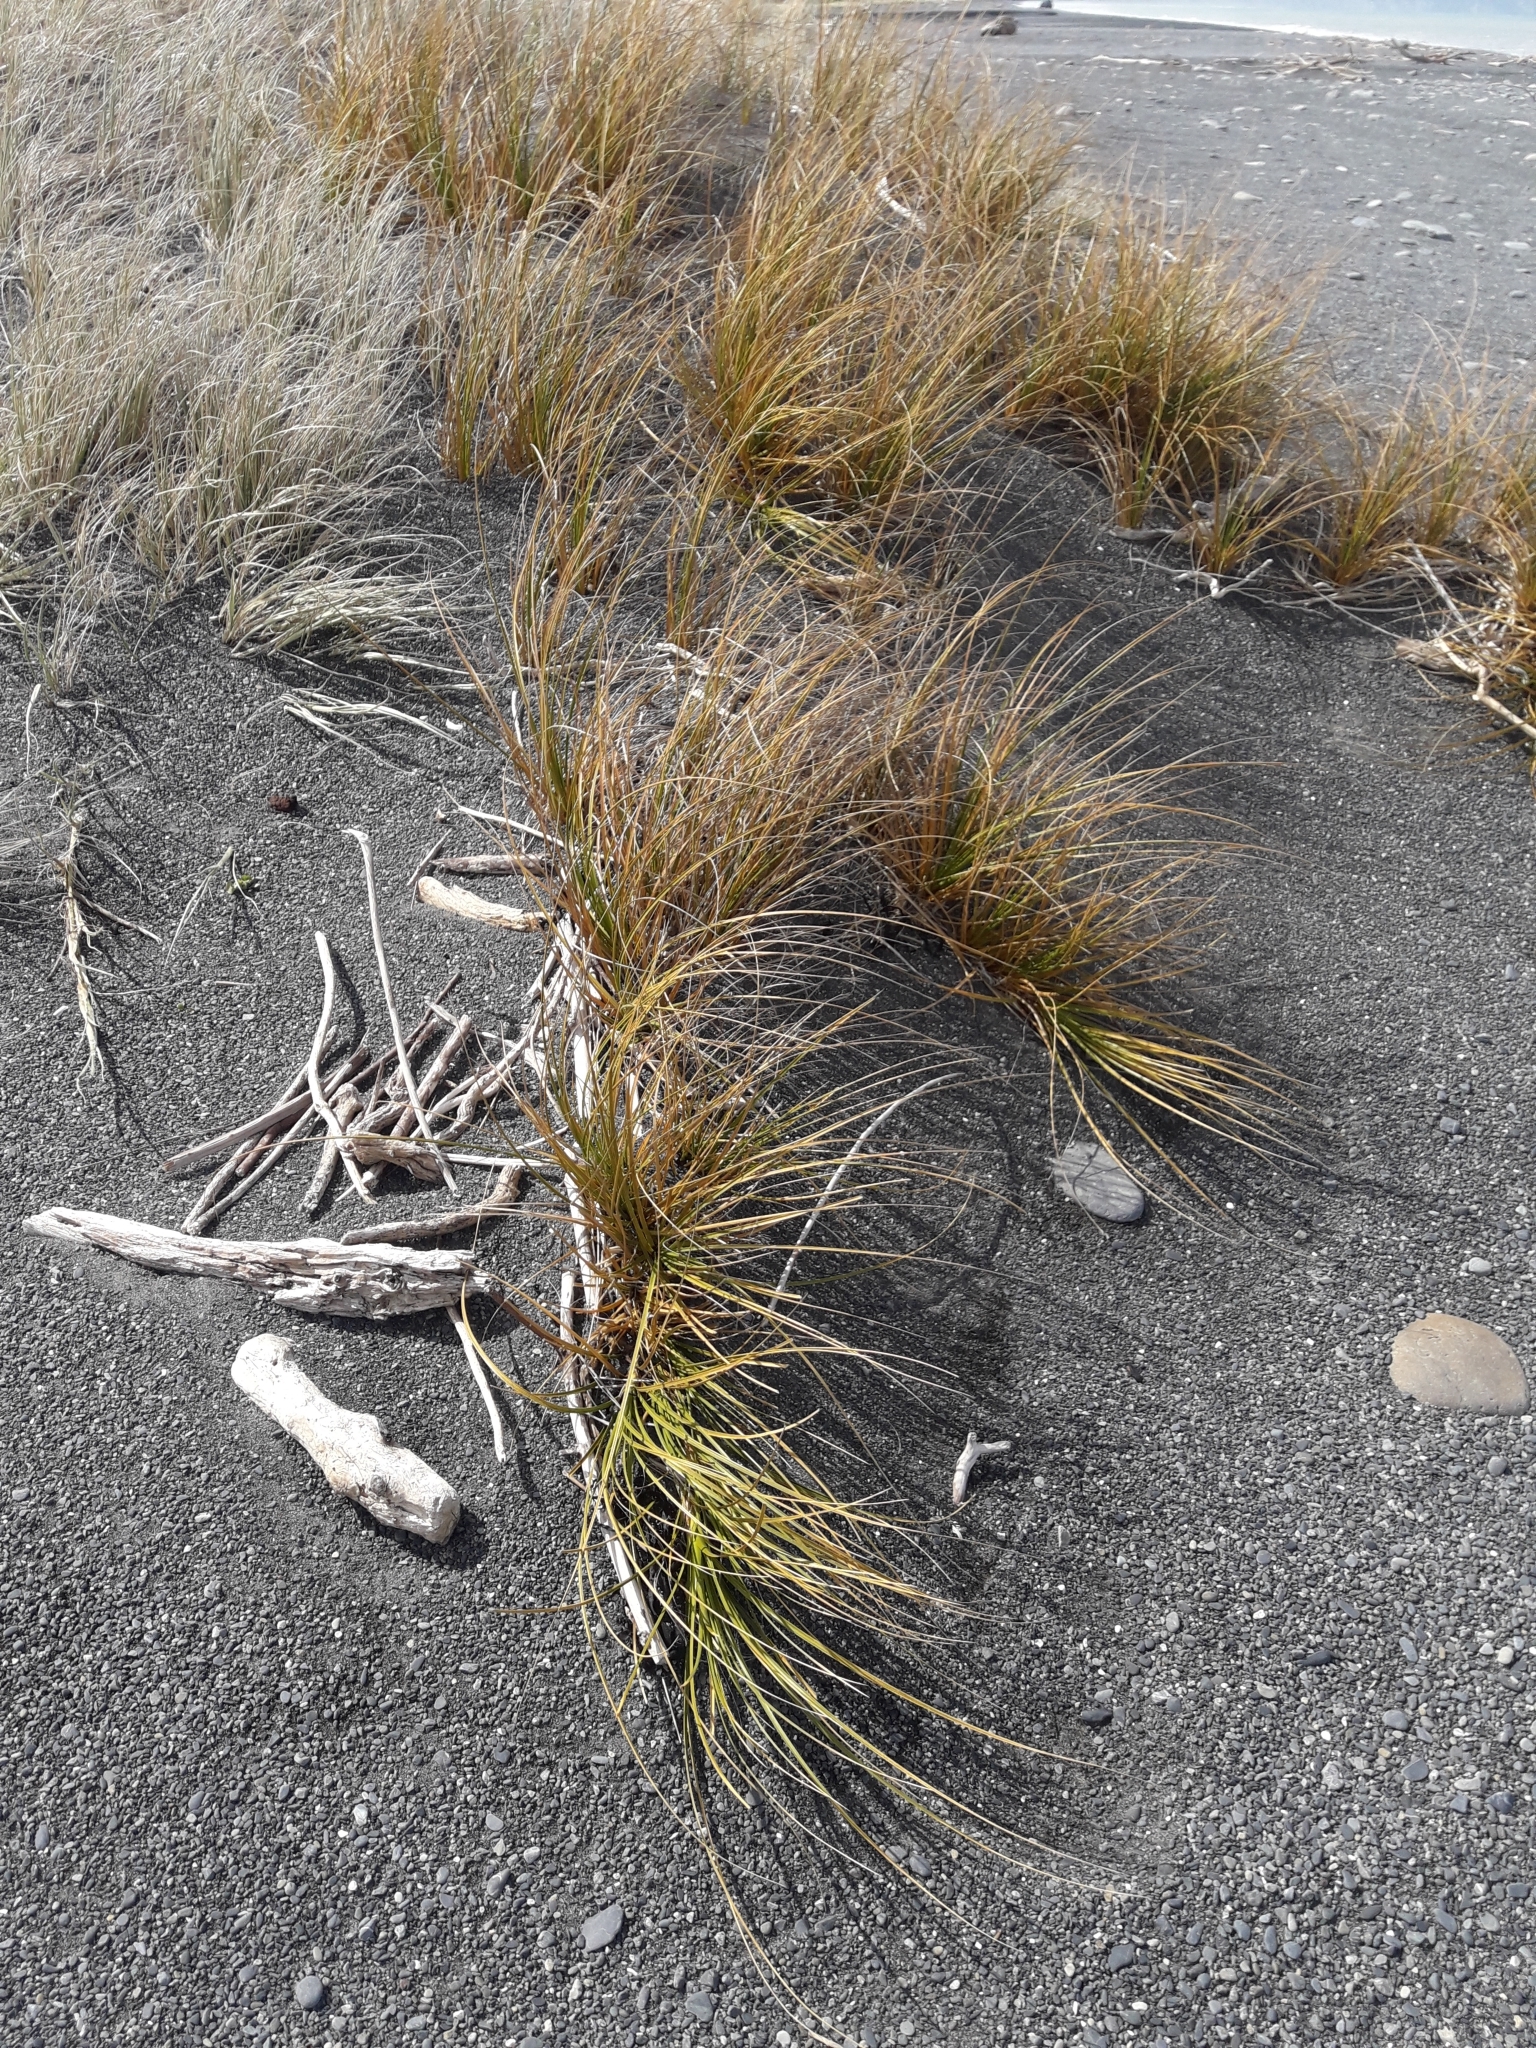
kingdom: Plantae
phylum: Tracheophyta
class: Liliopsida
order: Poales
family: Cyperaceae
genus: Ficinia
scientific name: Ficinia spiralis
